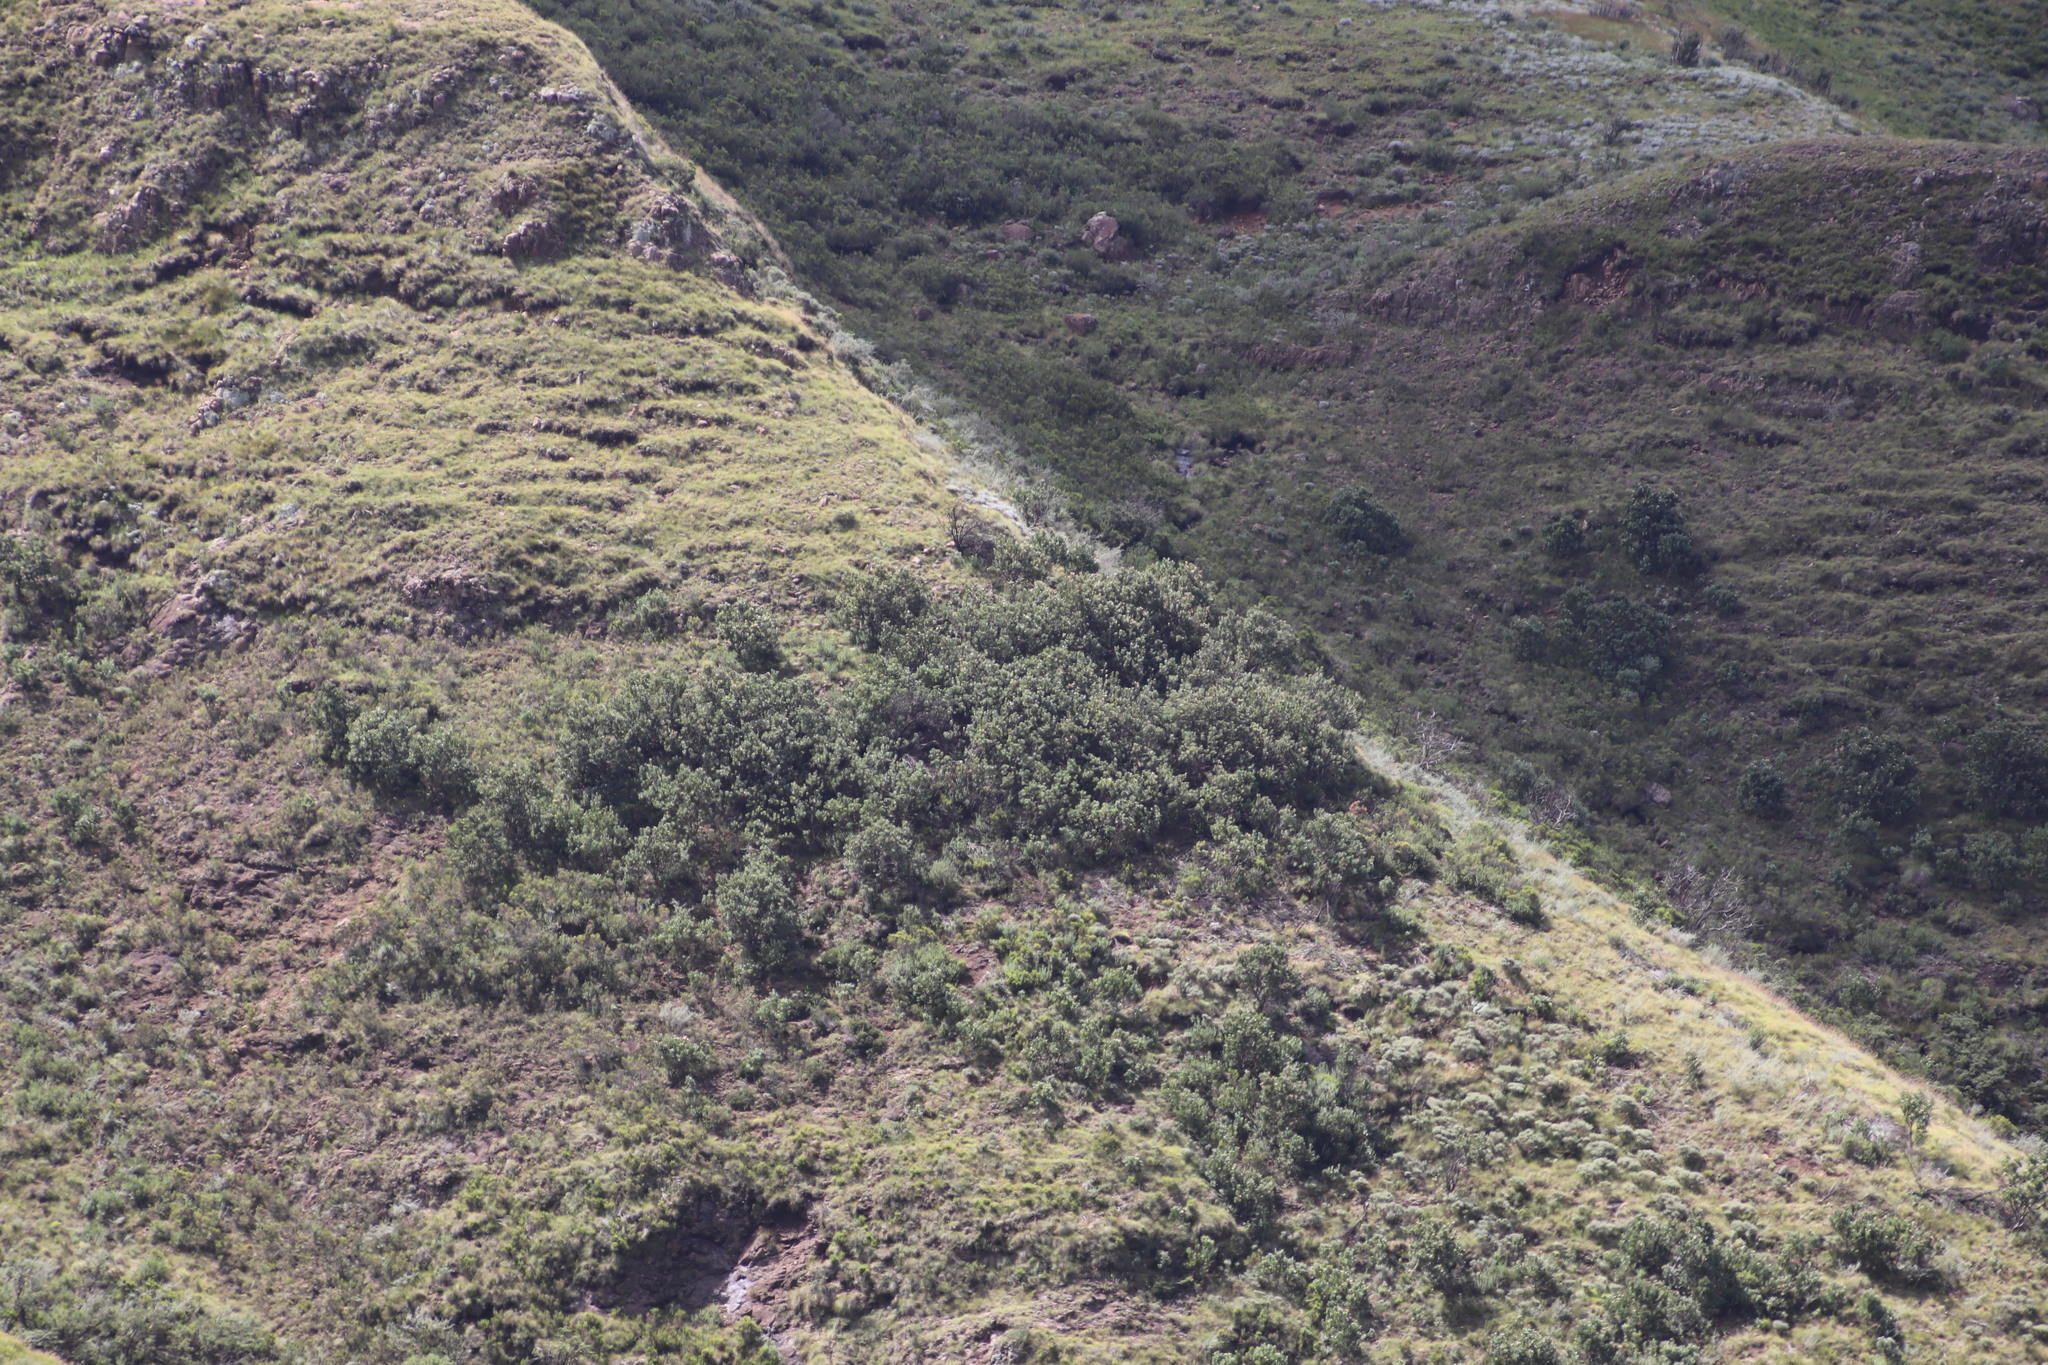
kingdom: Plantae
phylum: Tracheophyta
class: Magnoliopsida
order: Proteales
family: Proteaceae
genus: Protea
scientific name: Protea roupelliae
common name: Silver sugarbush
